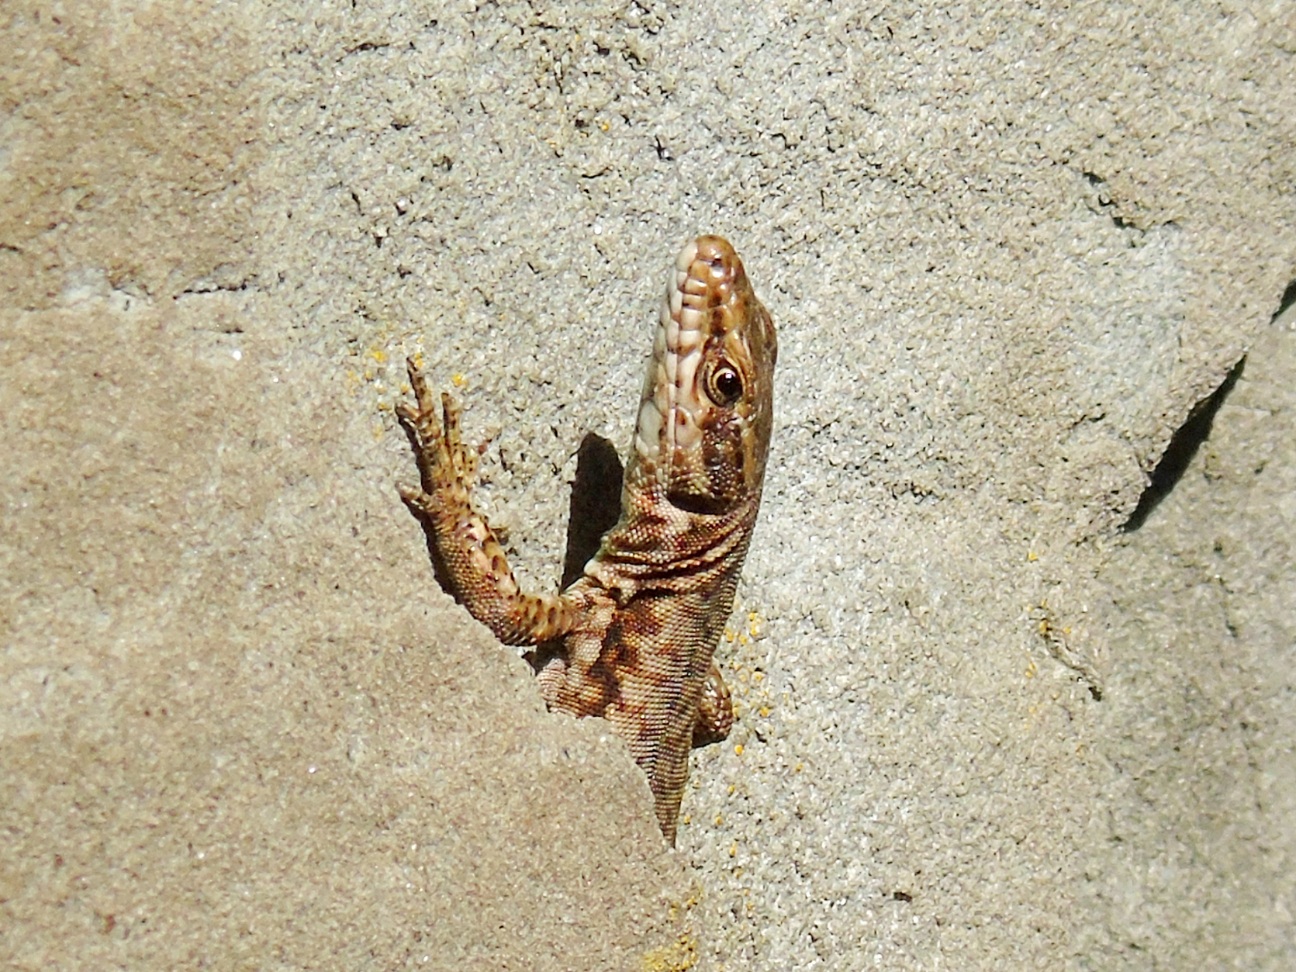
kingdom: Animalia
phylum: Chordata
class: Squamata
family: Lacertidae
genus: Podarcis
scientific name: Podarcis muralis
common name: Common wall lizard
